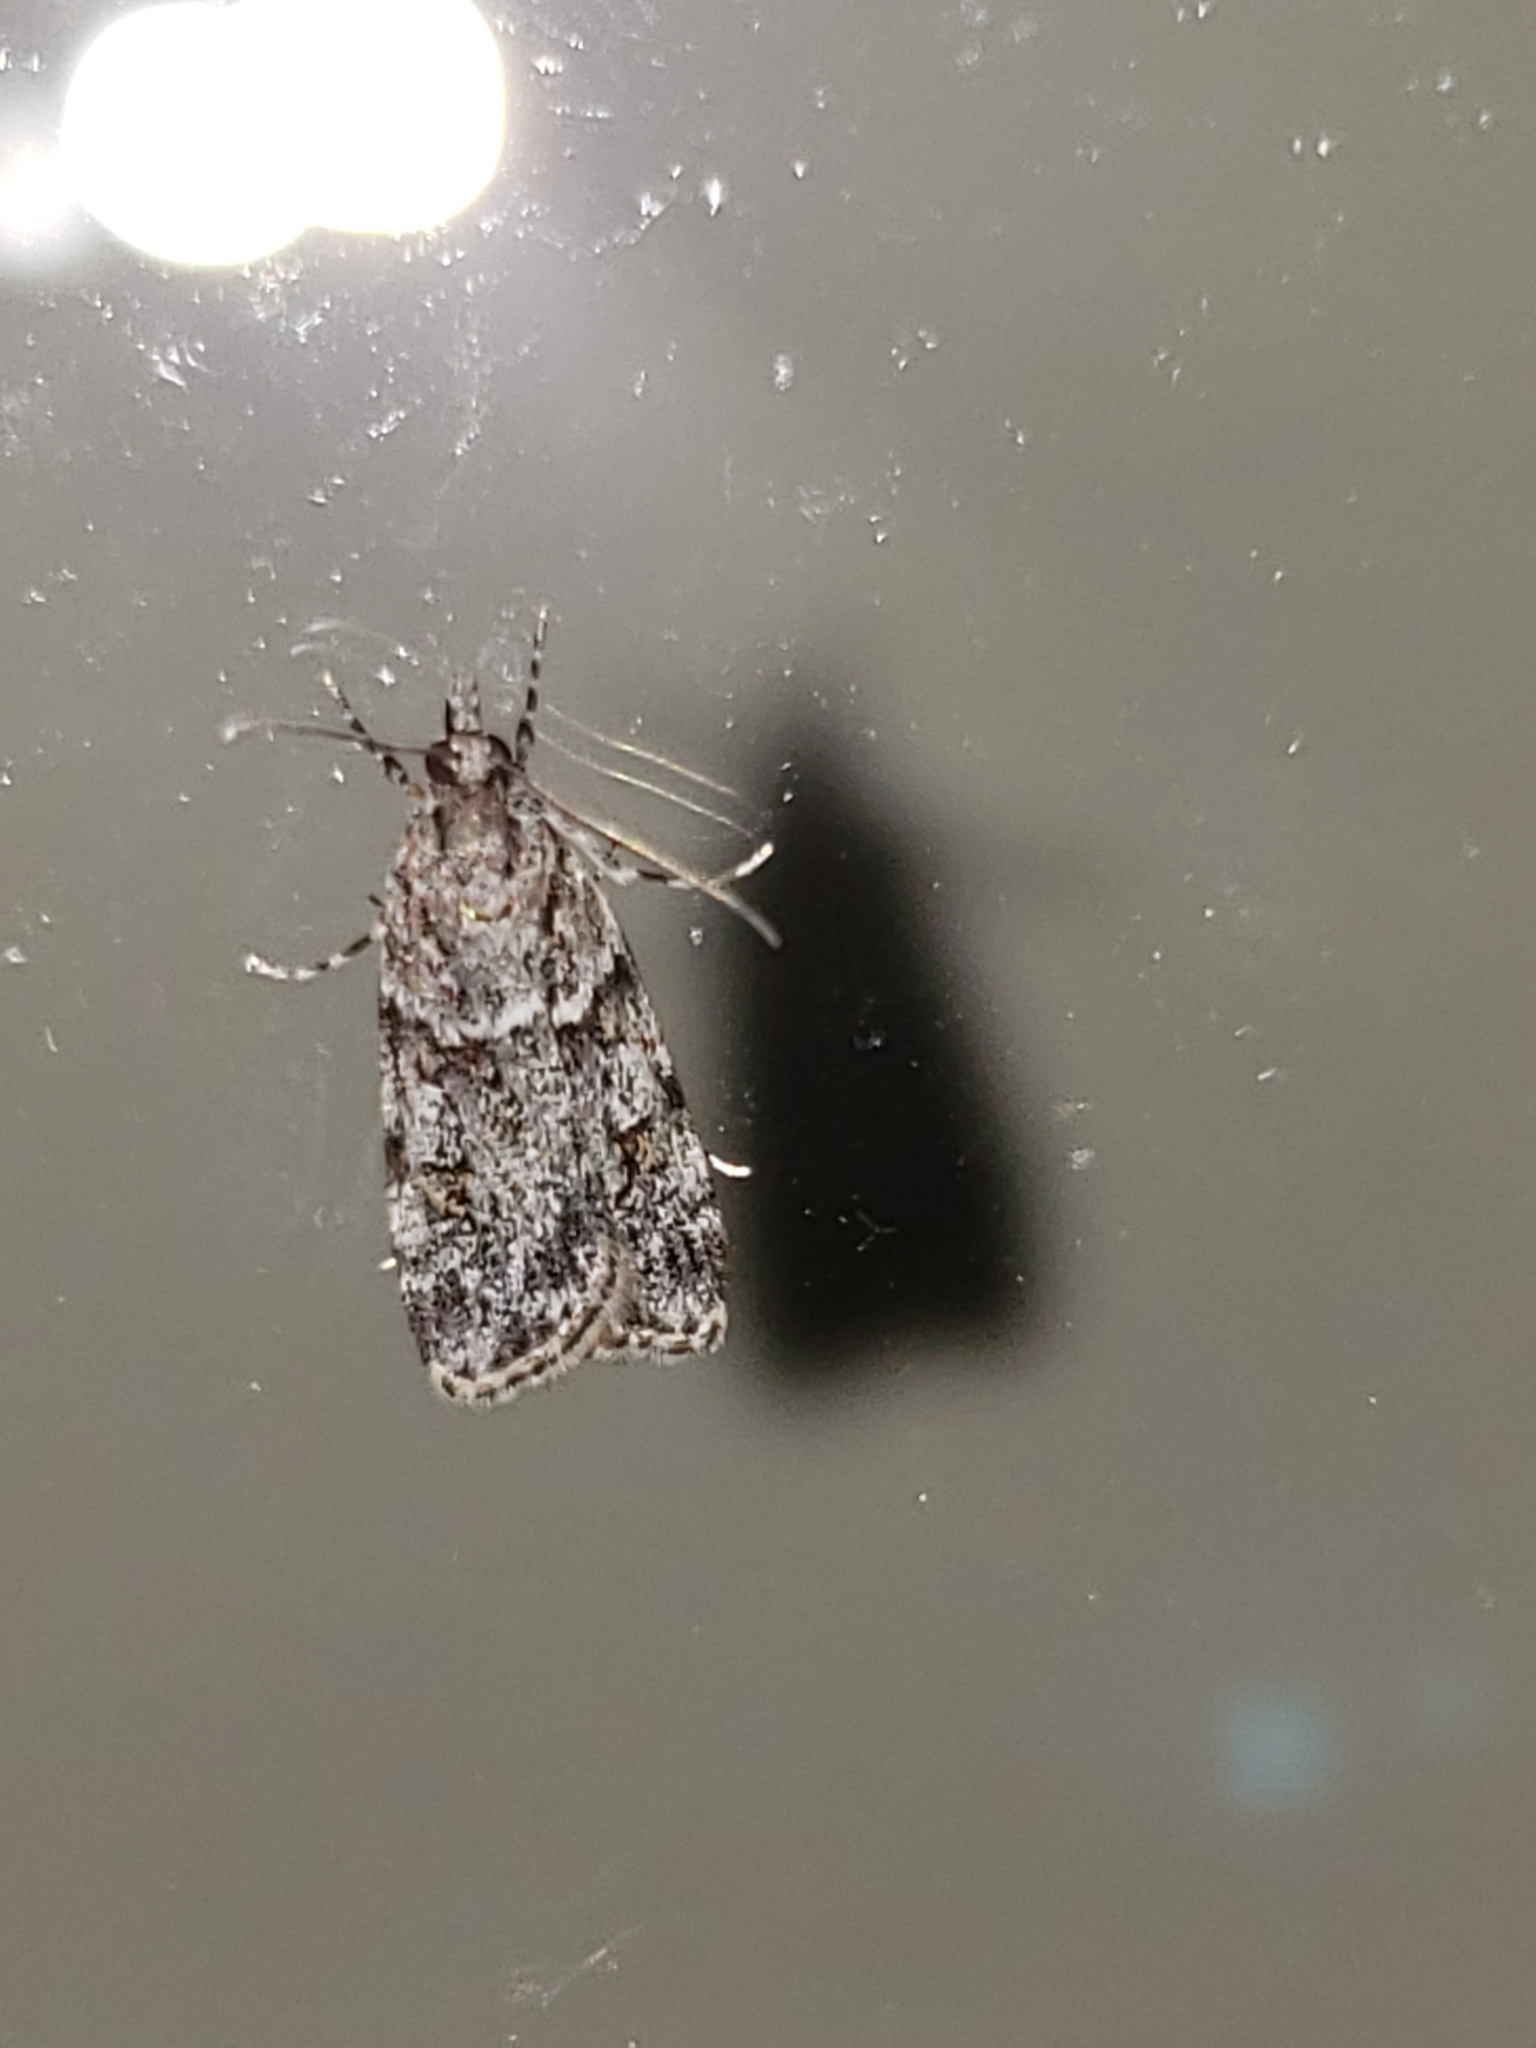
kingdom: Animalia
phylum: Arthropoda
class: Insecta
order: Lepidoptera
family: Crambidae
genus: Scoparia
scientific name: Scoparia biplagialis
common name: Double-striped scoparia moth
